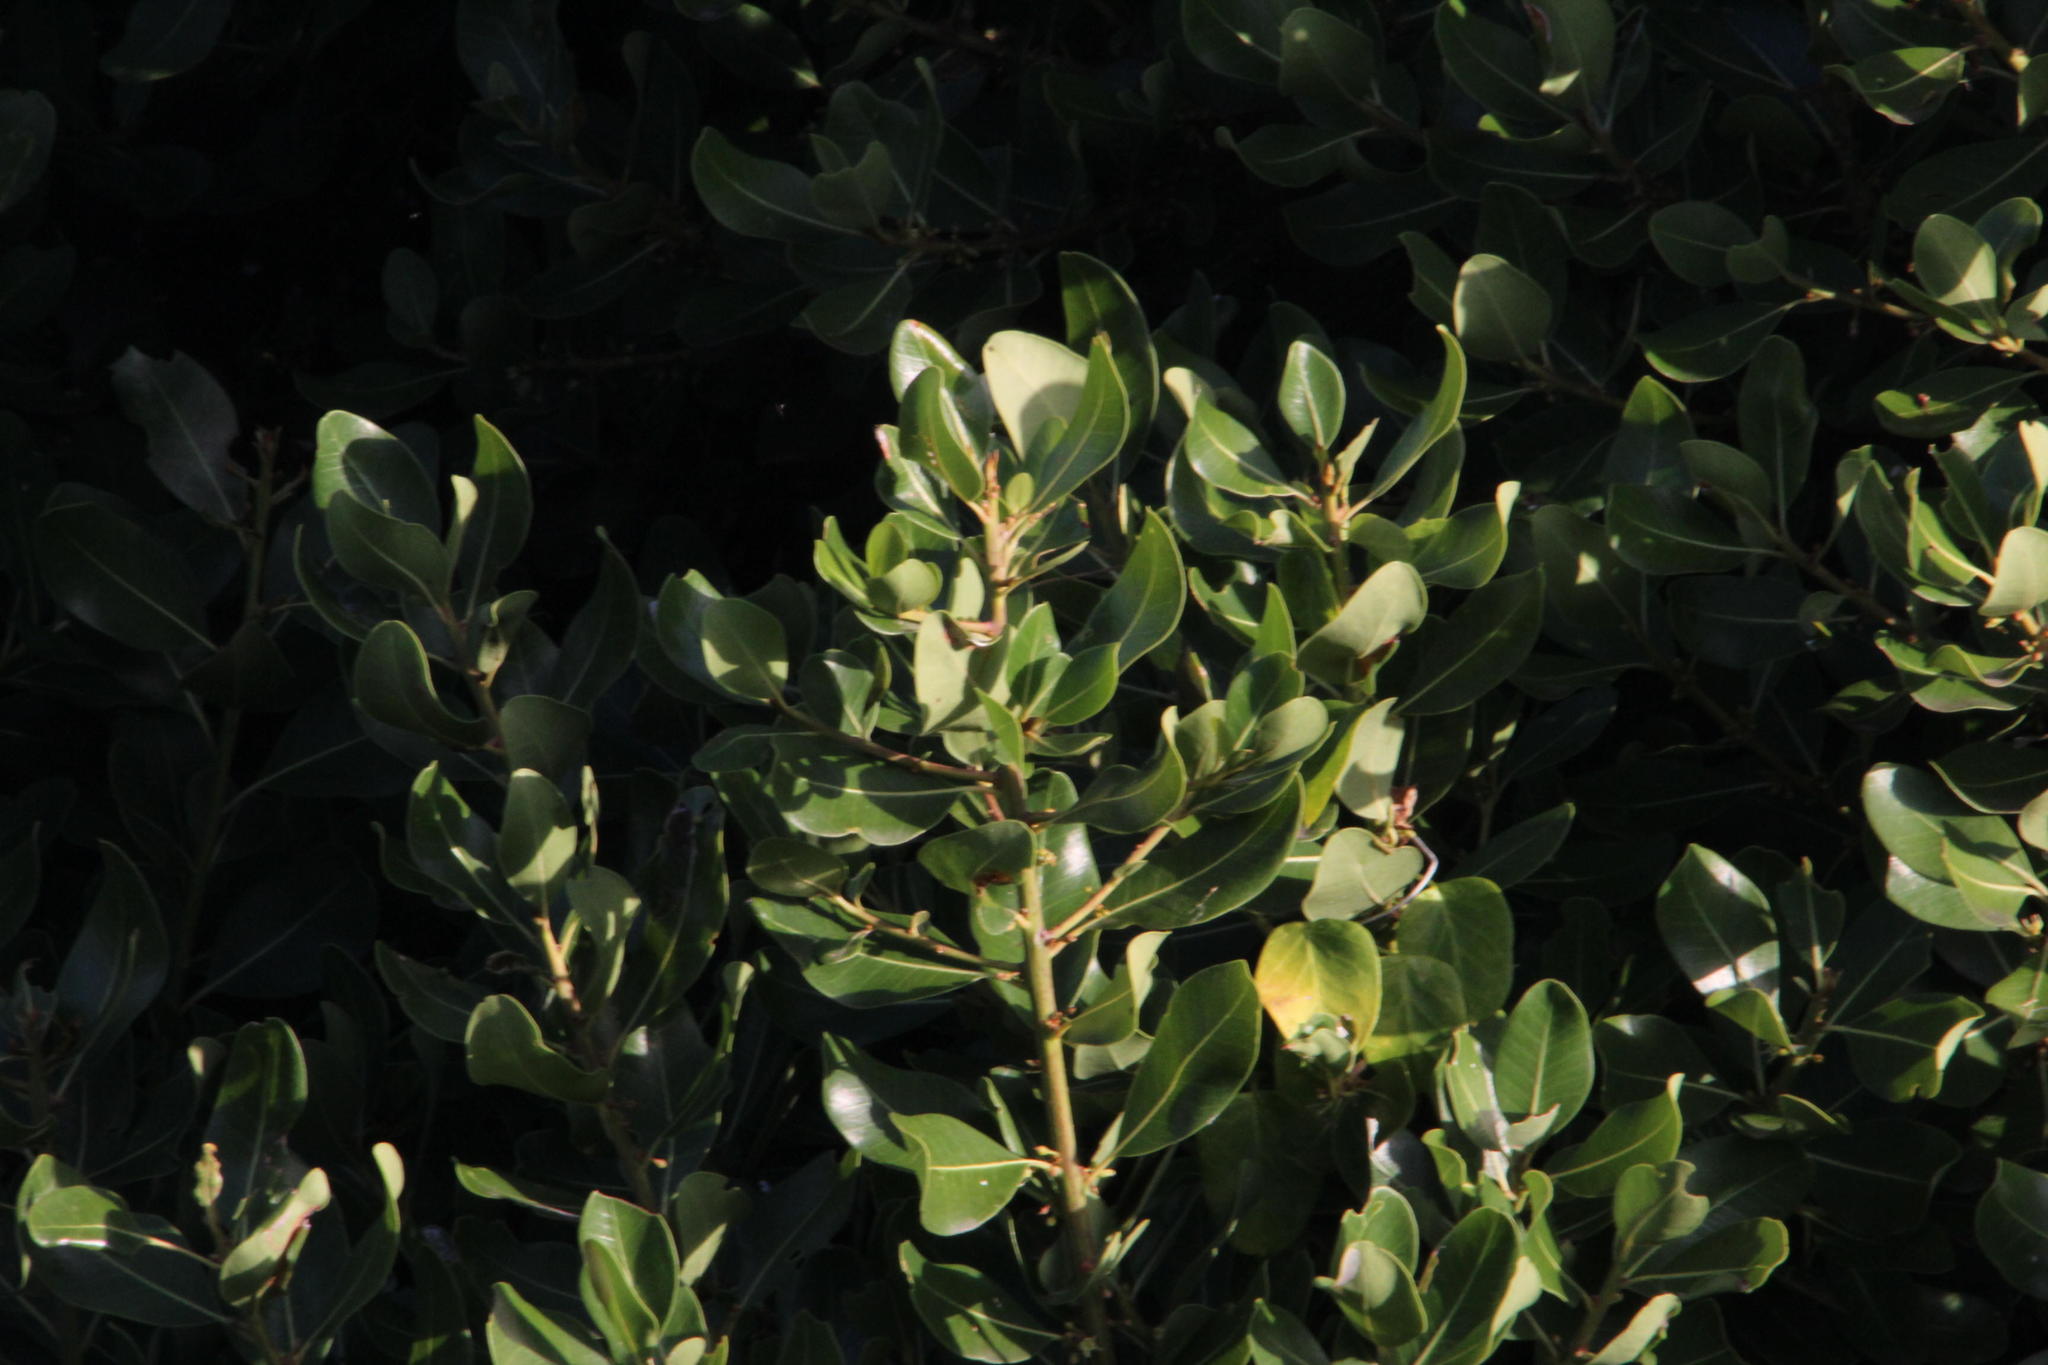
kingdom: Plantae
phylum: Tracheophyta
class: Magnoliopsida
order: Ericales
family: Sapotaceae
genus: Sideroxylon
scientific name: Sideroxylon inerme
